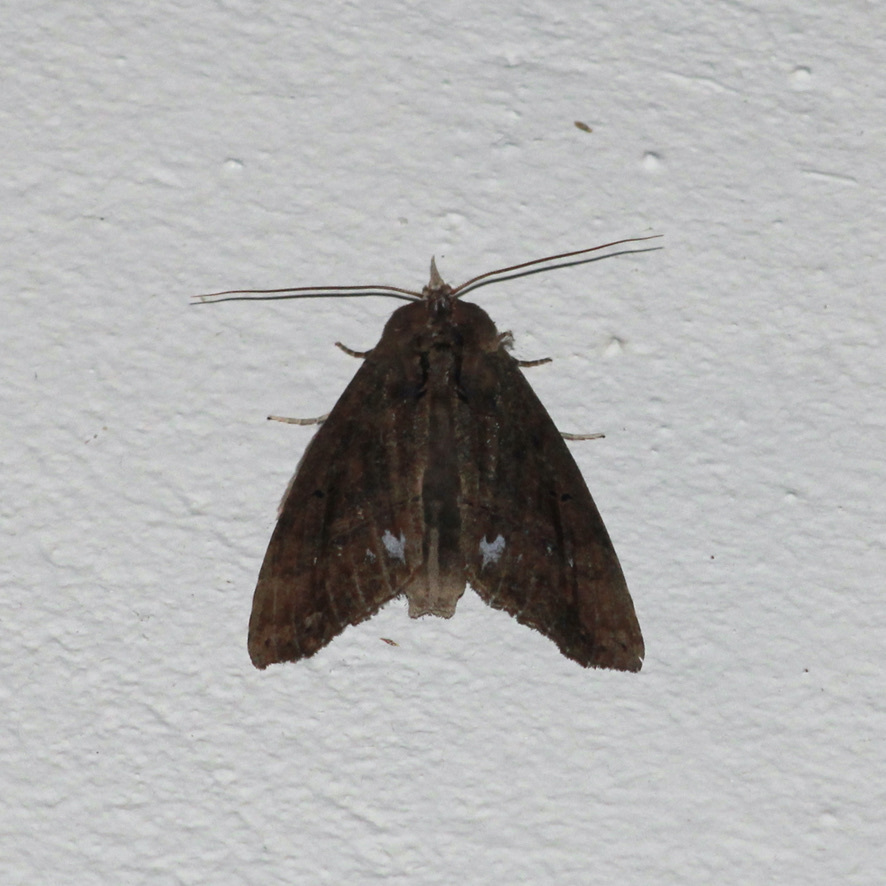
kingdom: Animalia
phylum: Arthropoda
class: Insecta
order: Lepidoptera
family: Notodontidae
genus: Bardaxima
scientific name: Bardaxima marcida
